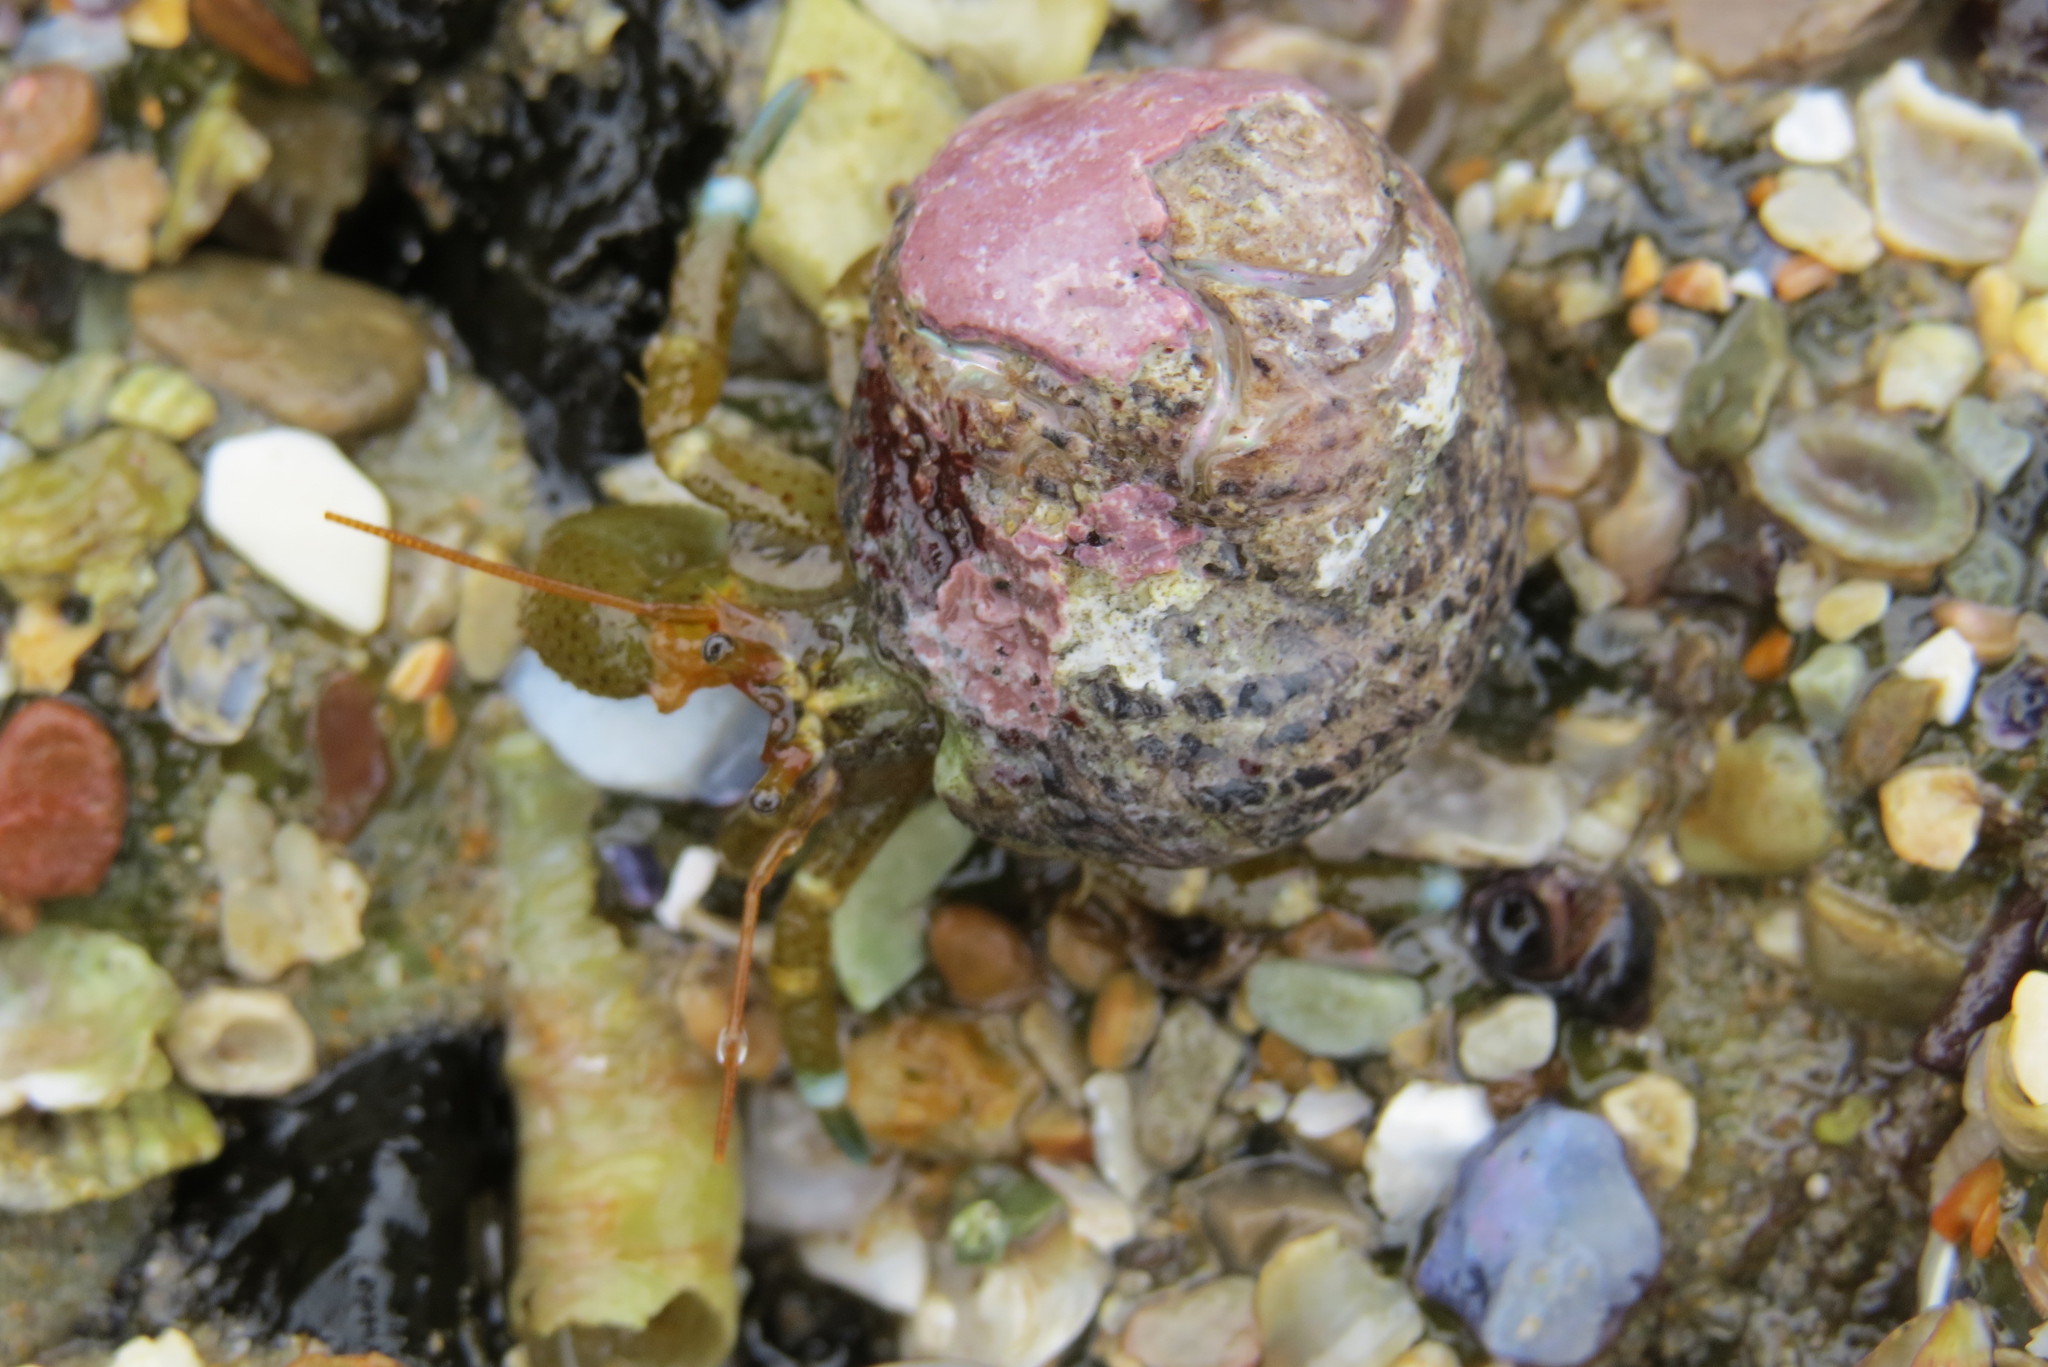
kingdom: Animalia
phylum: Arthropoda
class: Malacostraca
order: Decapoda
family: Paguridae
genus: Pagurus
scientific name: Pagurus samuelis
